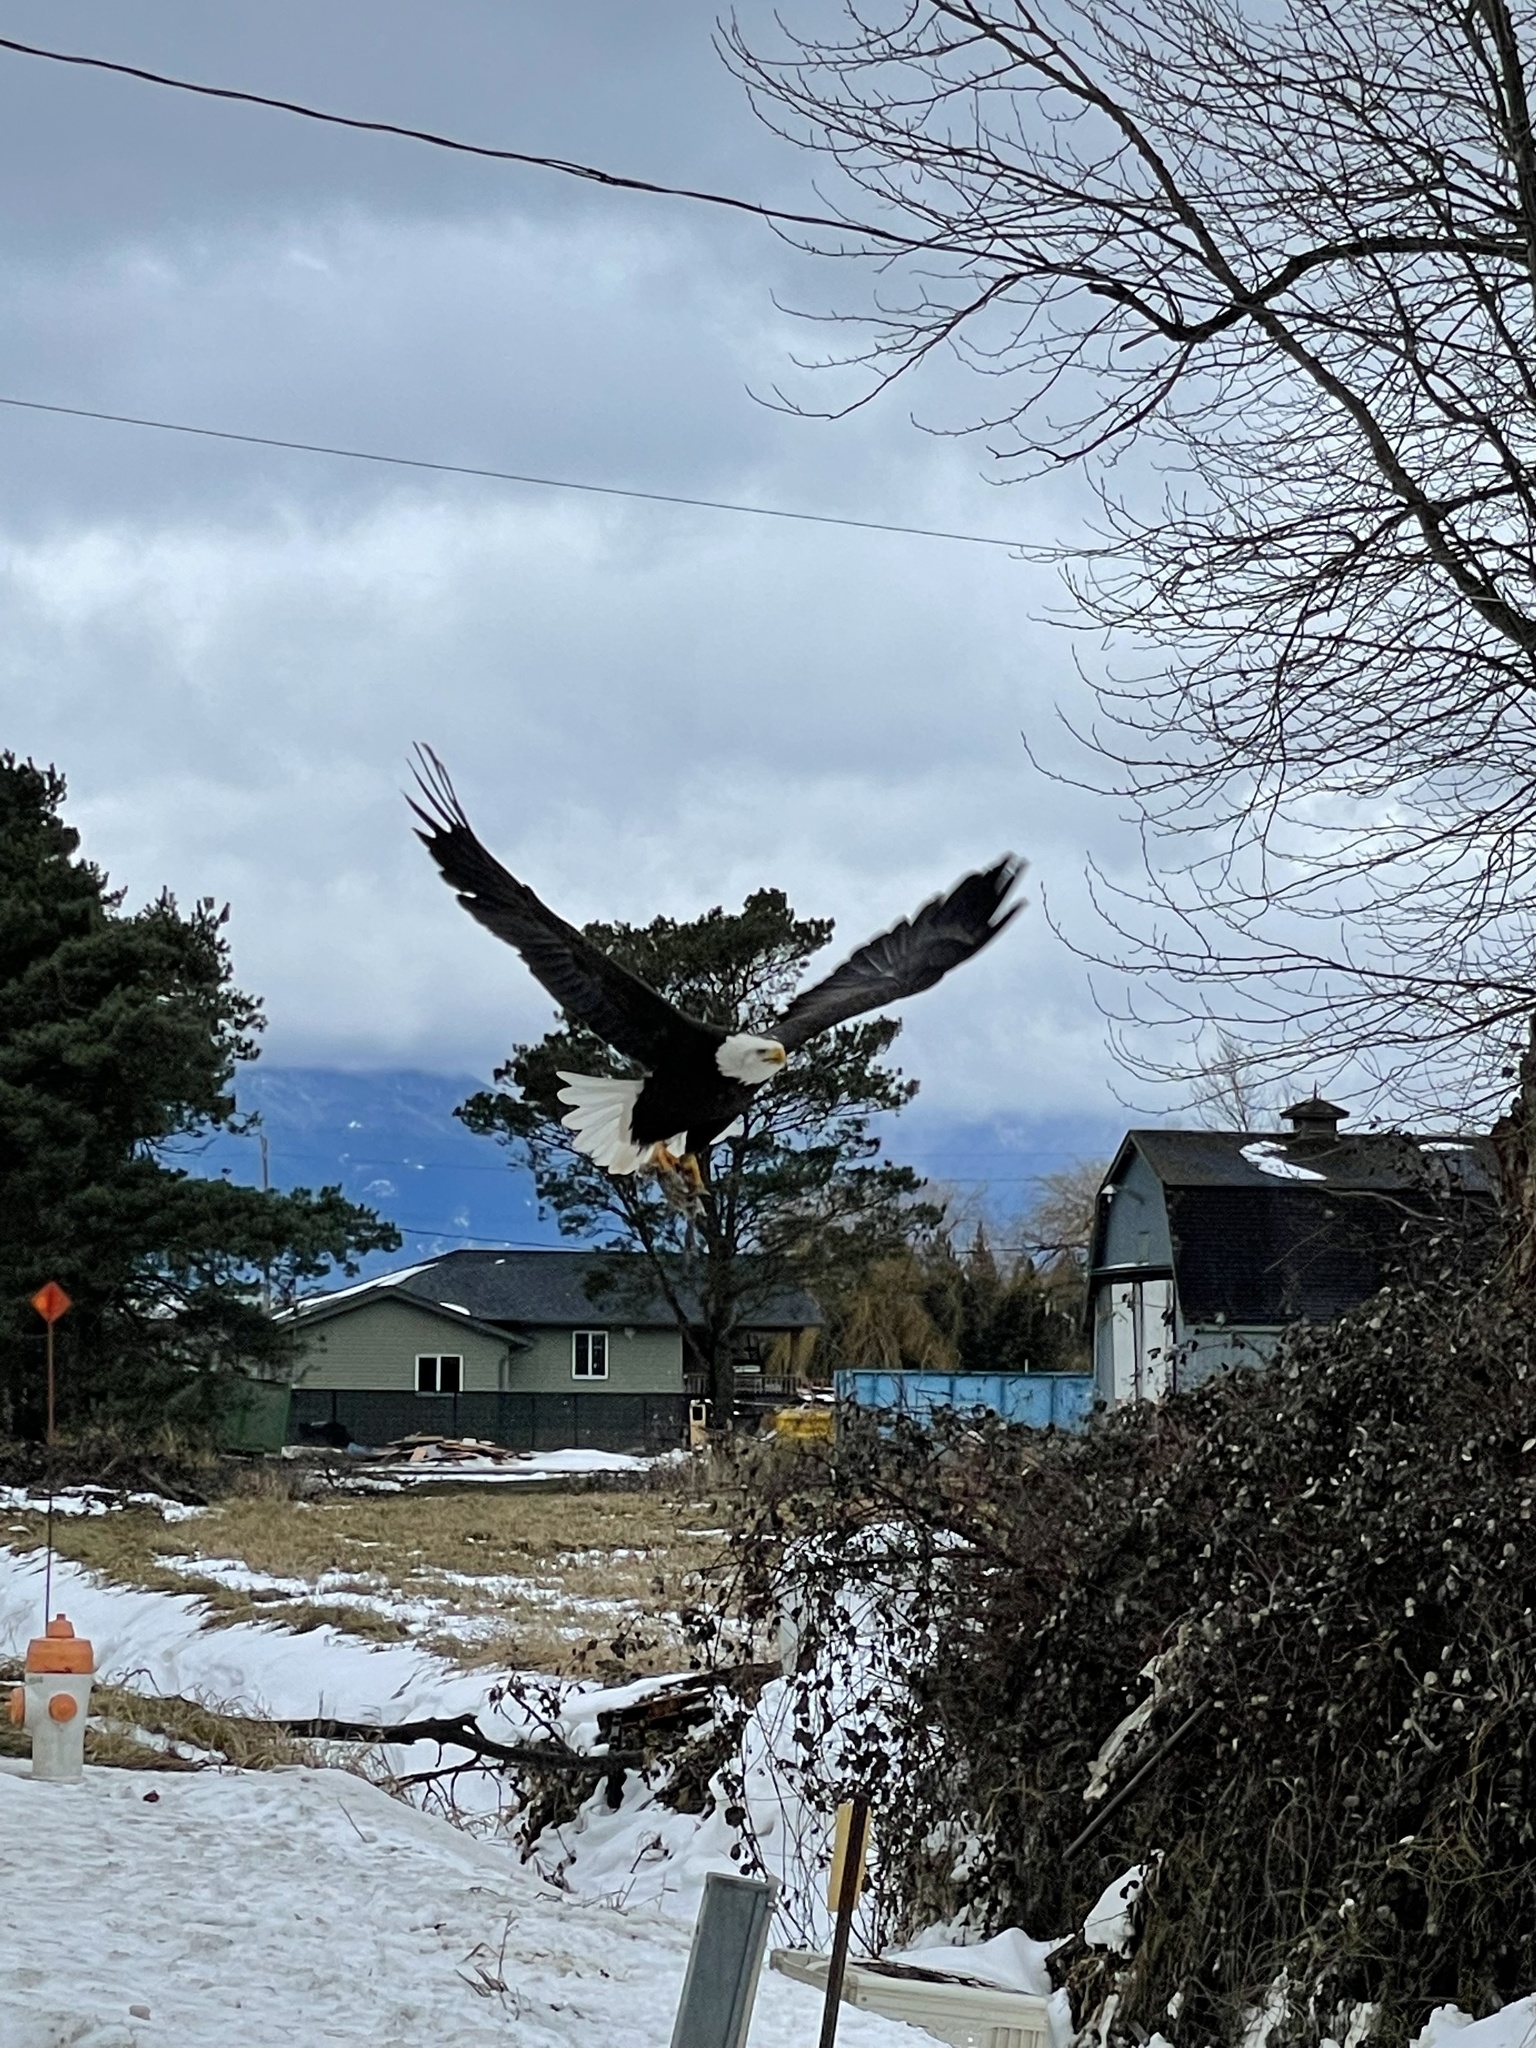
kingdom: Animalia
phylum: Chordata
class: Aves
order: Accipitriformes
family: Accipitridae
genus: Haliaeetus
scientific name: Haliaeetus leucocephalus
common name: Bald eagle
